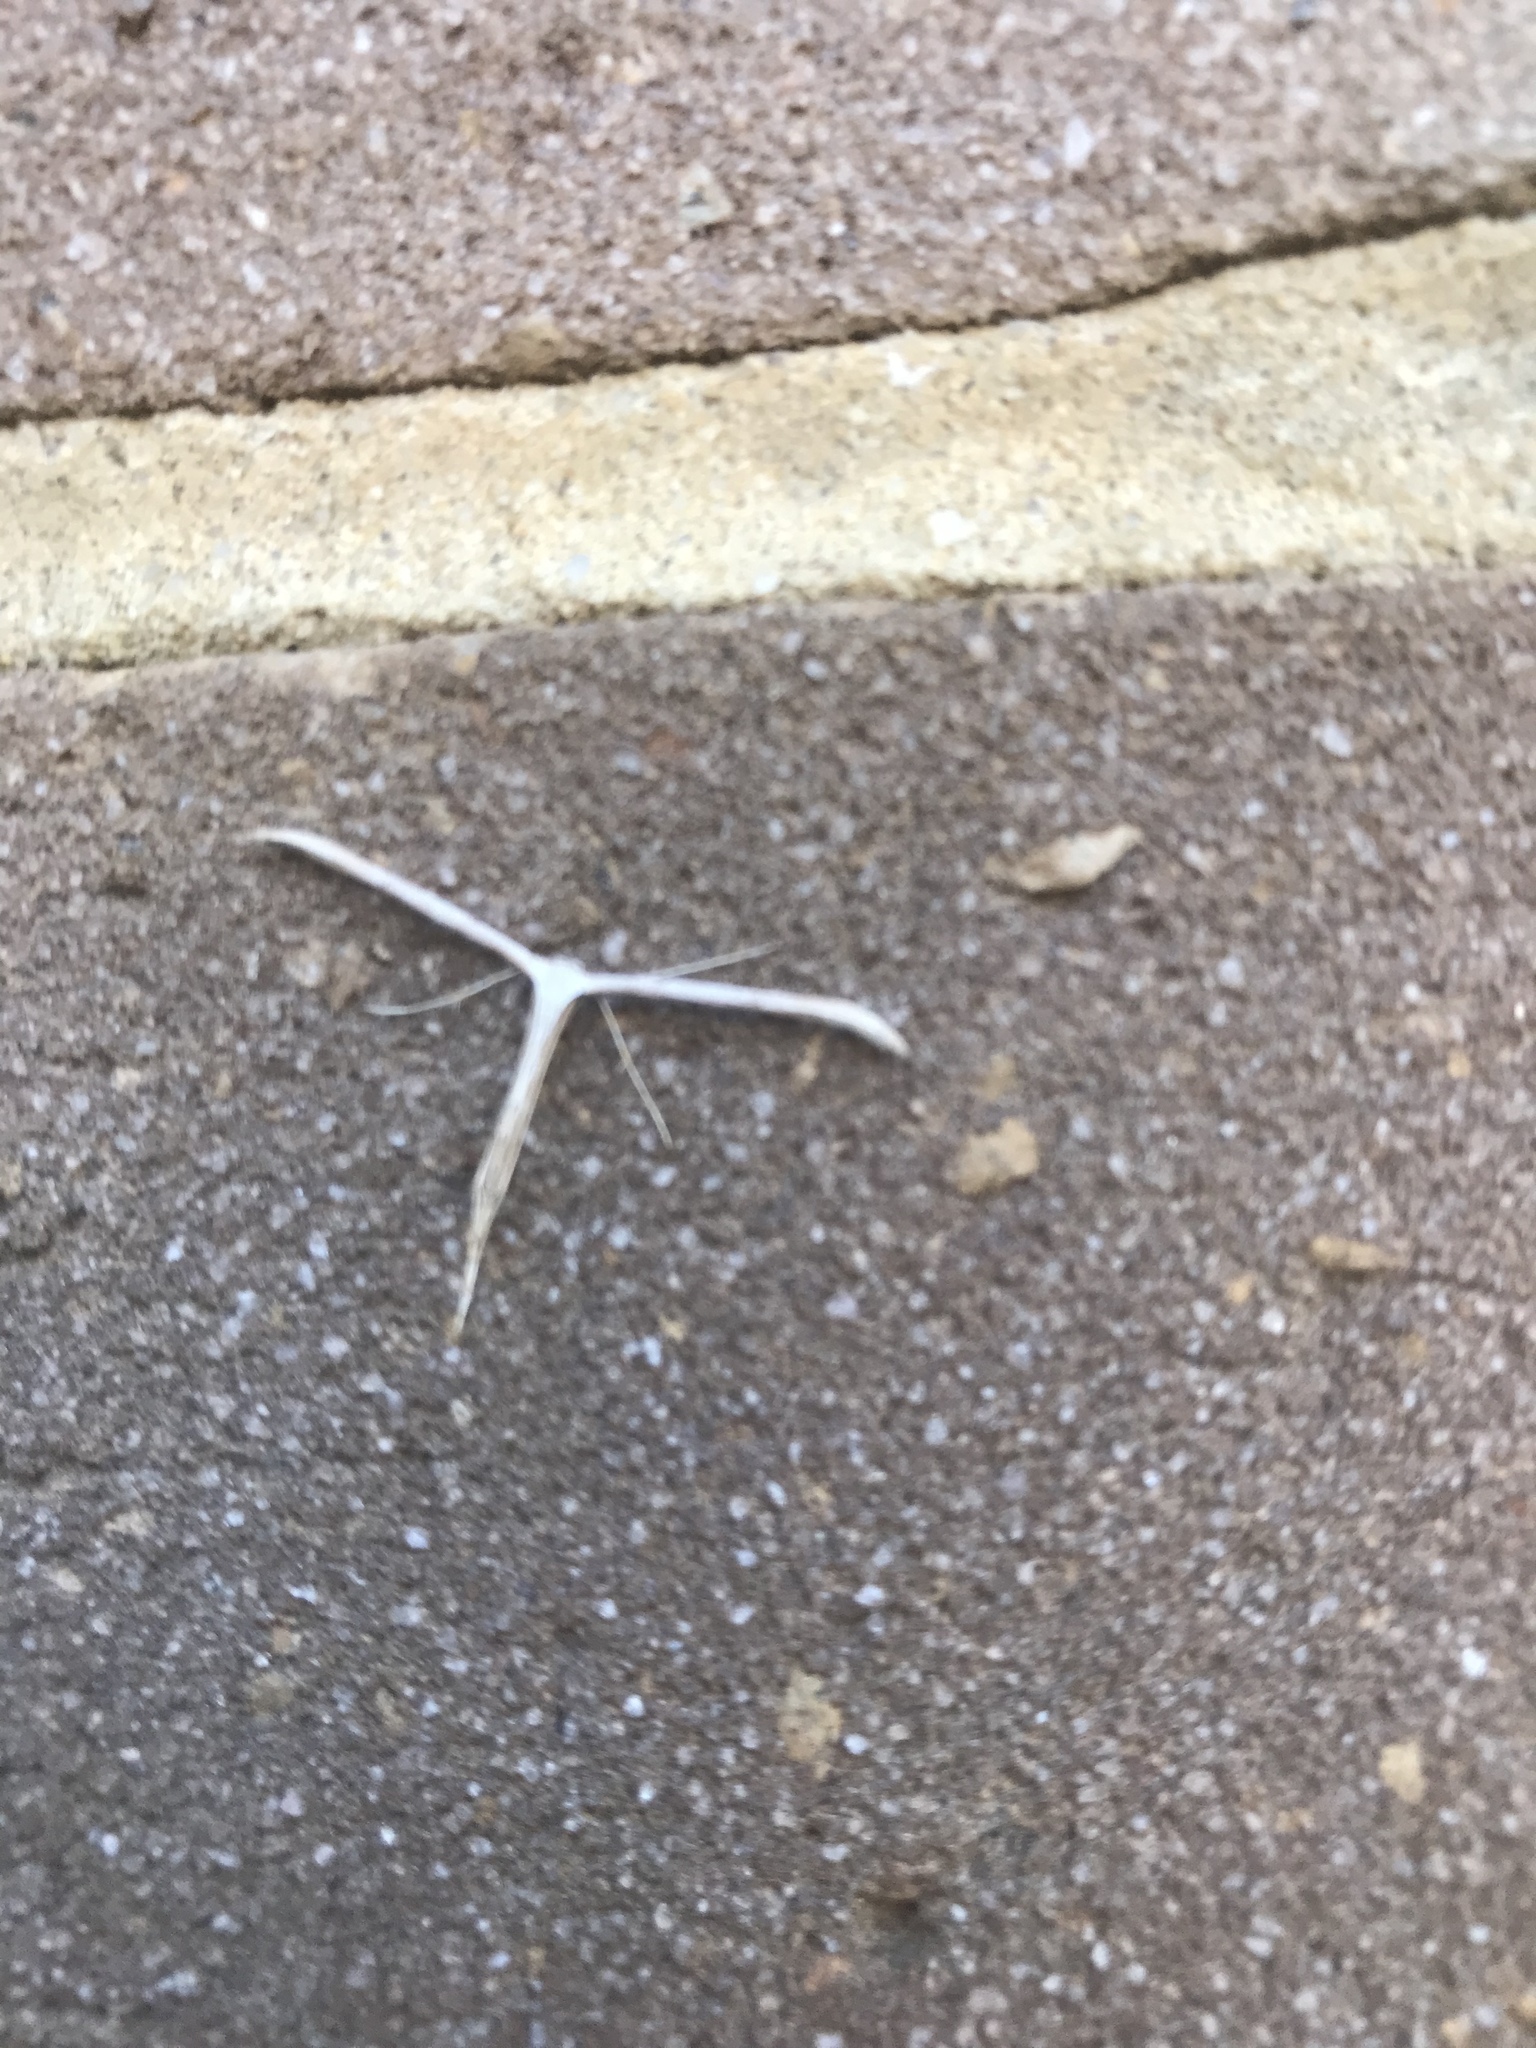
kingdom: Animalia
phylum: Arthropoda
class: Insecta
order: Lepidoptera
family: Pterophoridae
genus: Emmelina
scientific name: Emmelina monodactyla
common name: Common plume
